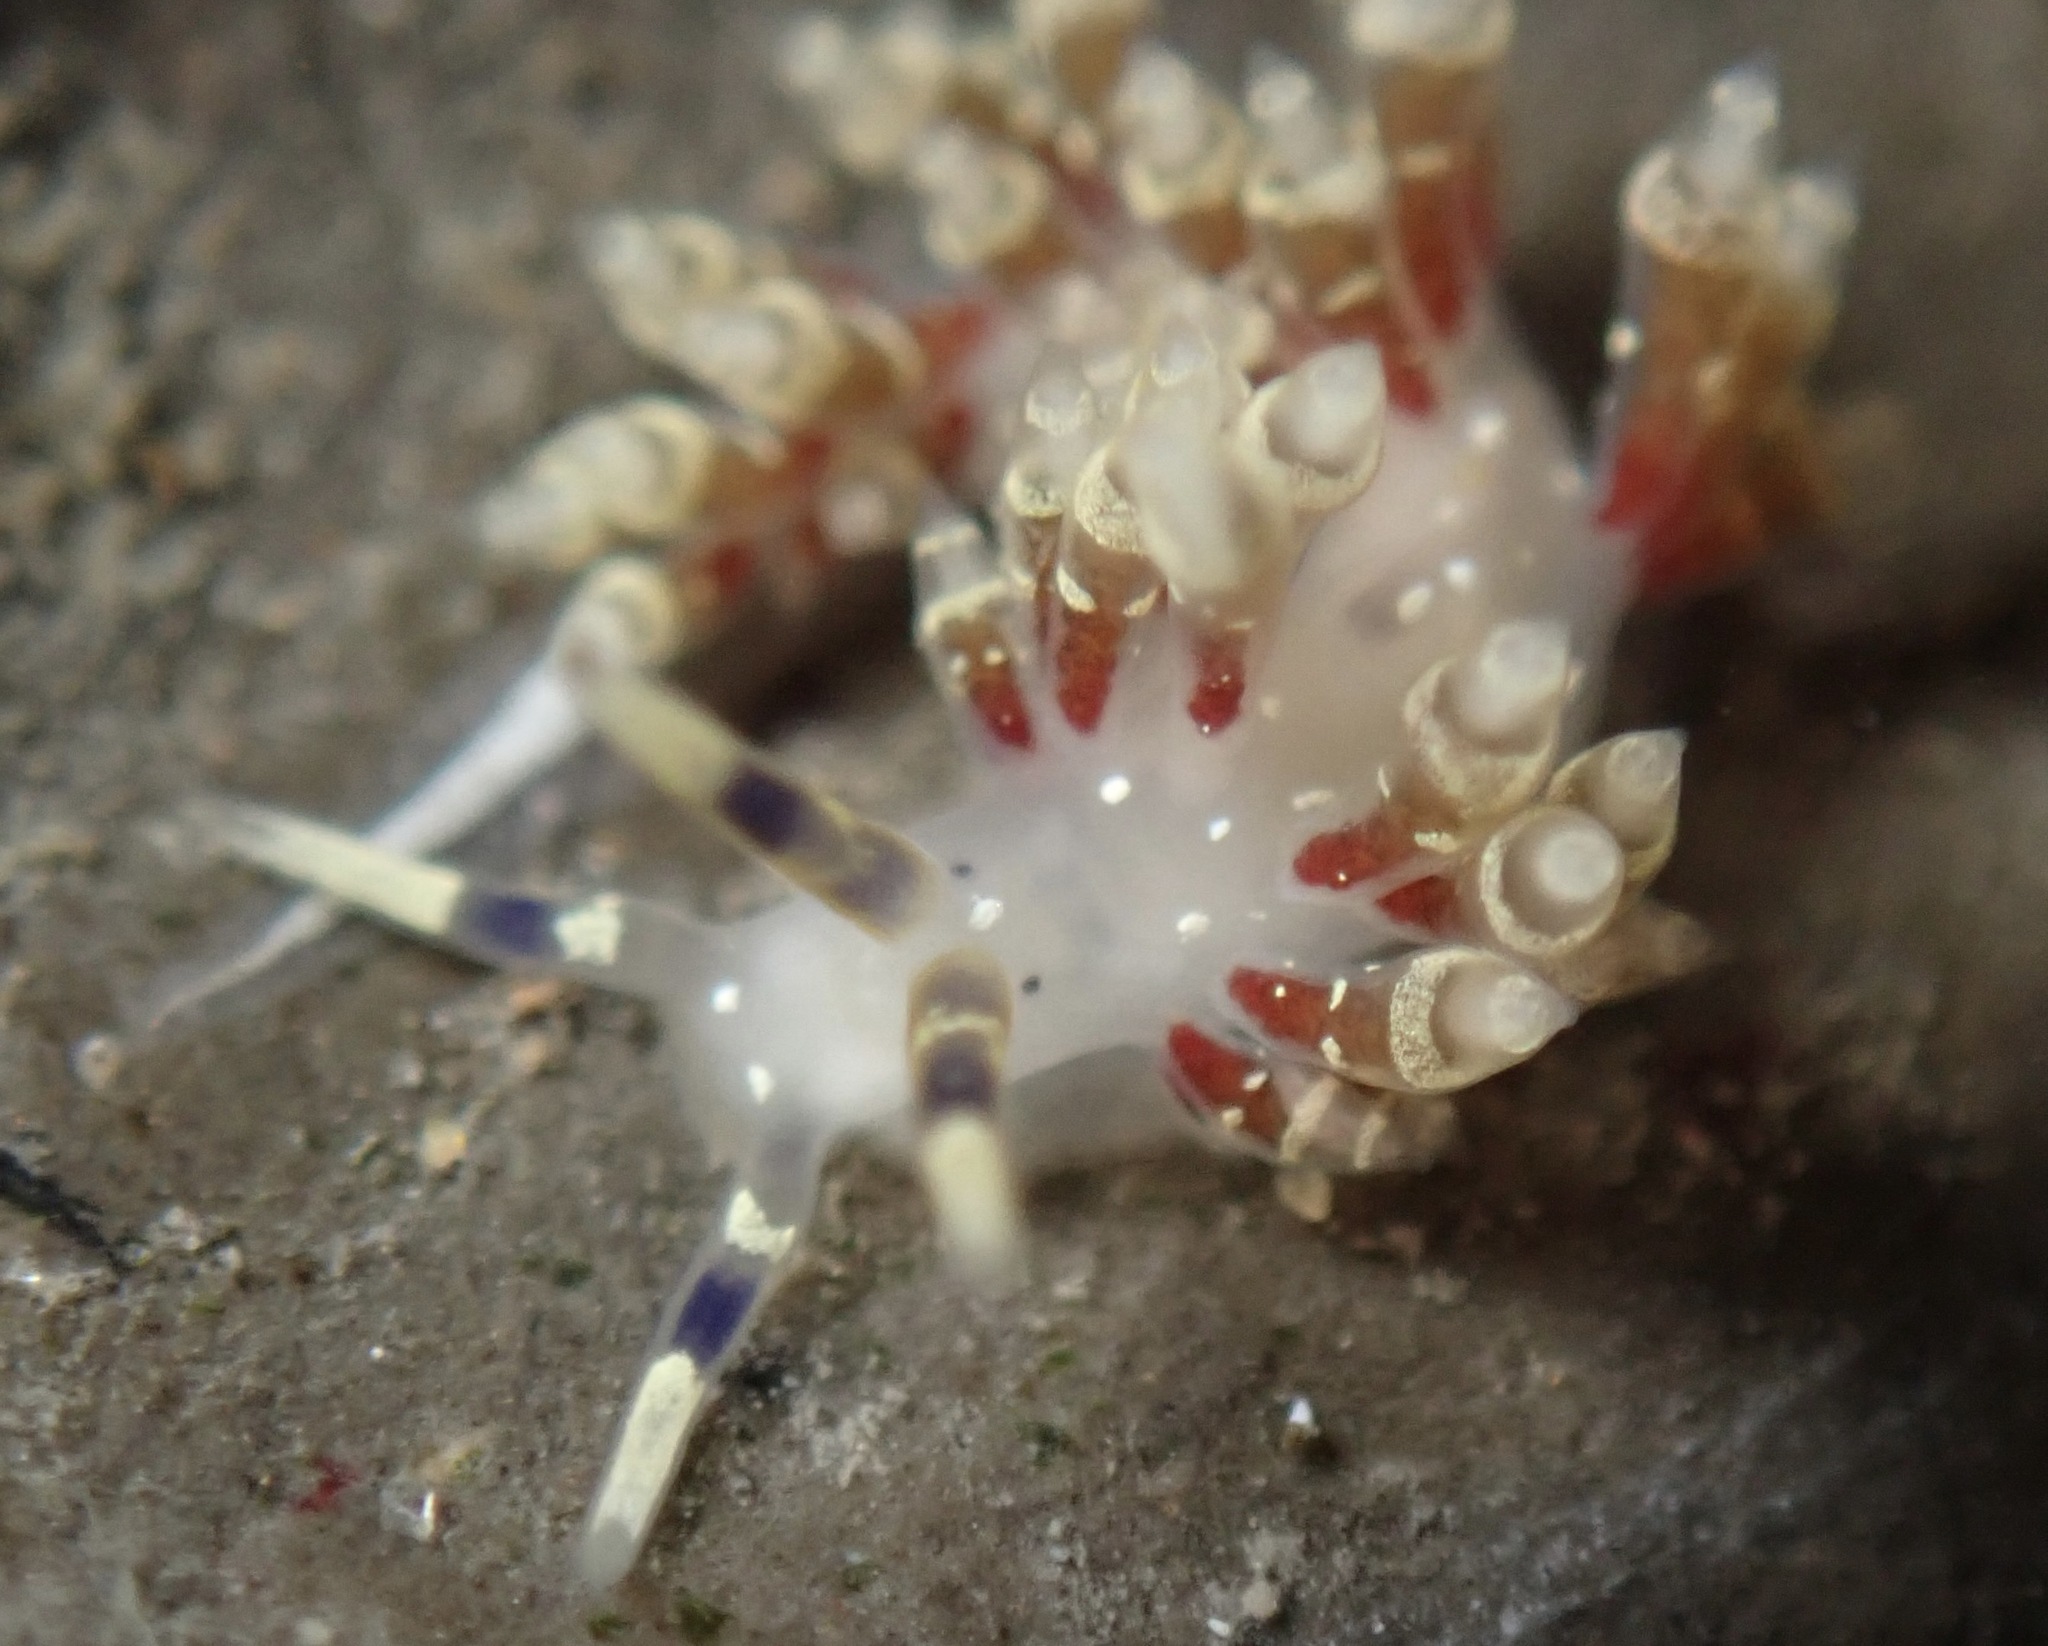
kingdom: Animalia
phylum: Mollusca
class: Gastropoda
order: Nudibranchia
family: Abronicidae
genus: Abronica
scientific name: Abronica abronia
